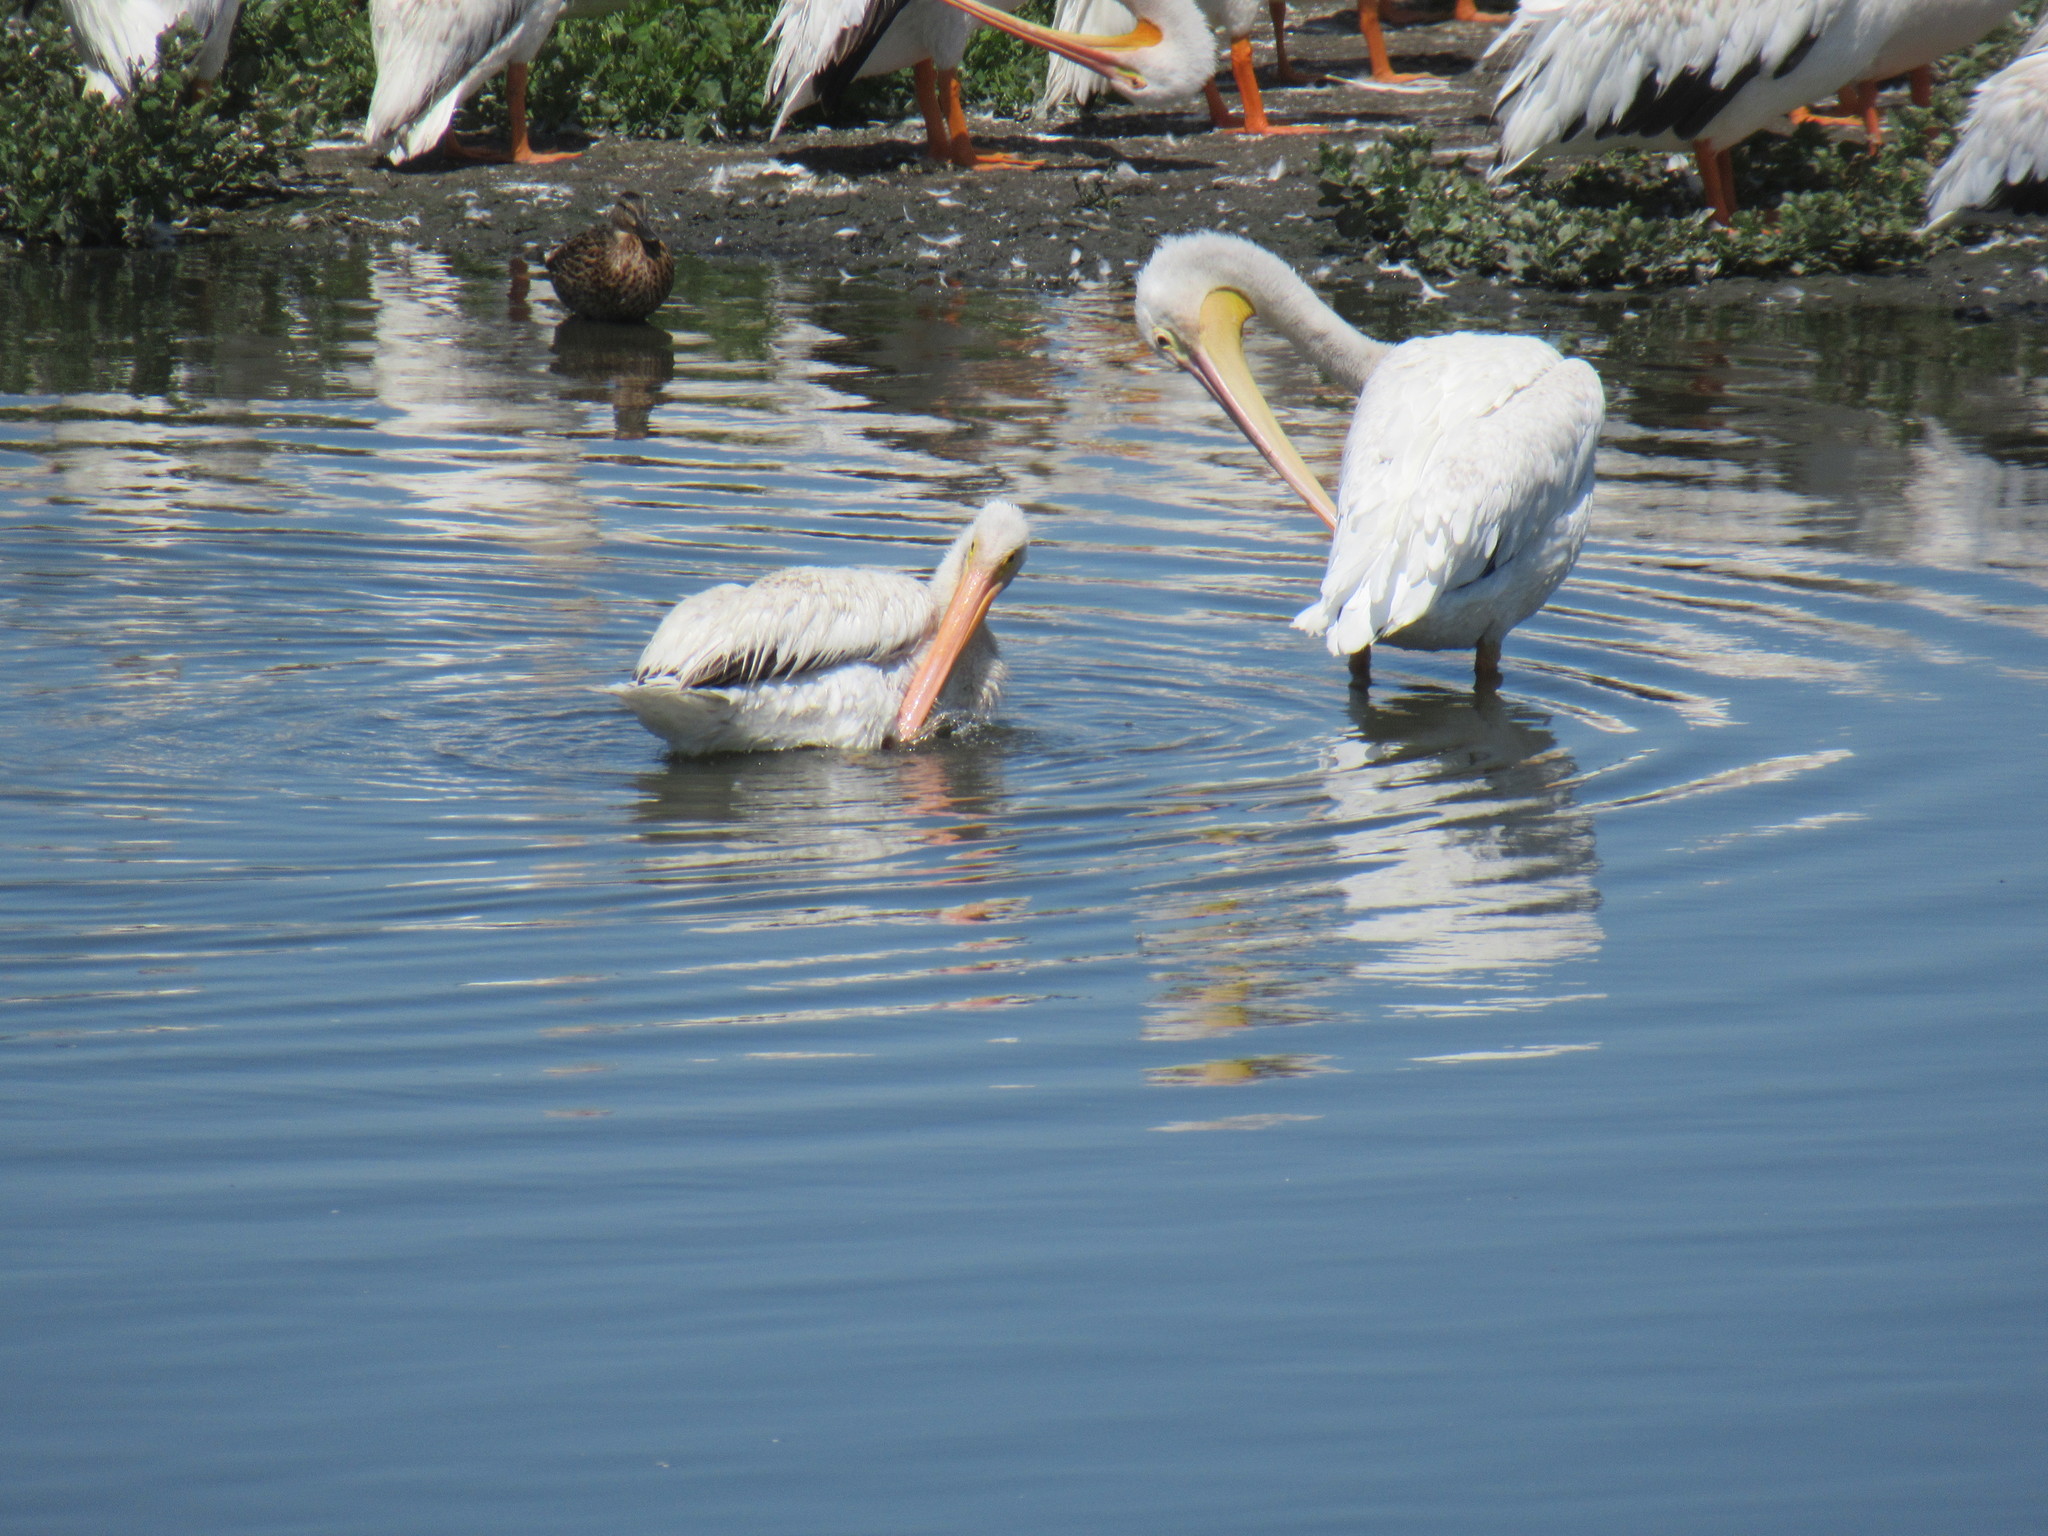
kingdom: Animalia
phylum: Chordata
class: Aves
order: Pelecaniformes
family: Pelecanidae
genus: Pelecanus
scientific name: Pelecanus erythrorhynchos
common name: American white pelican
